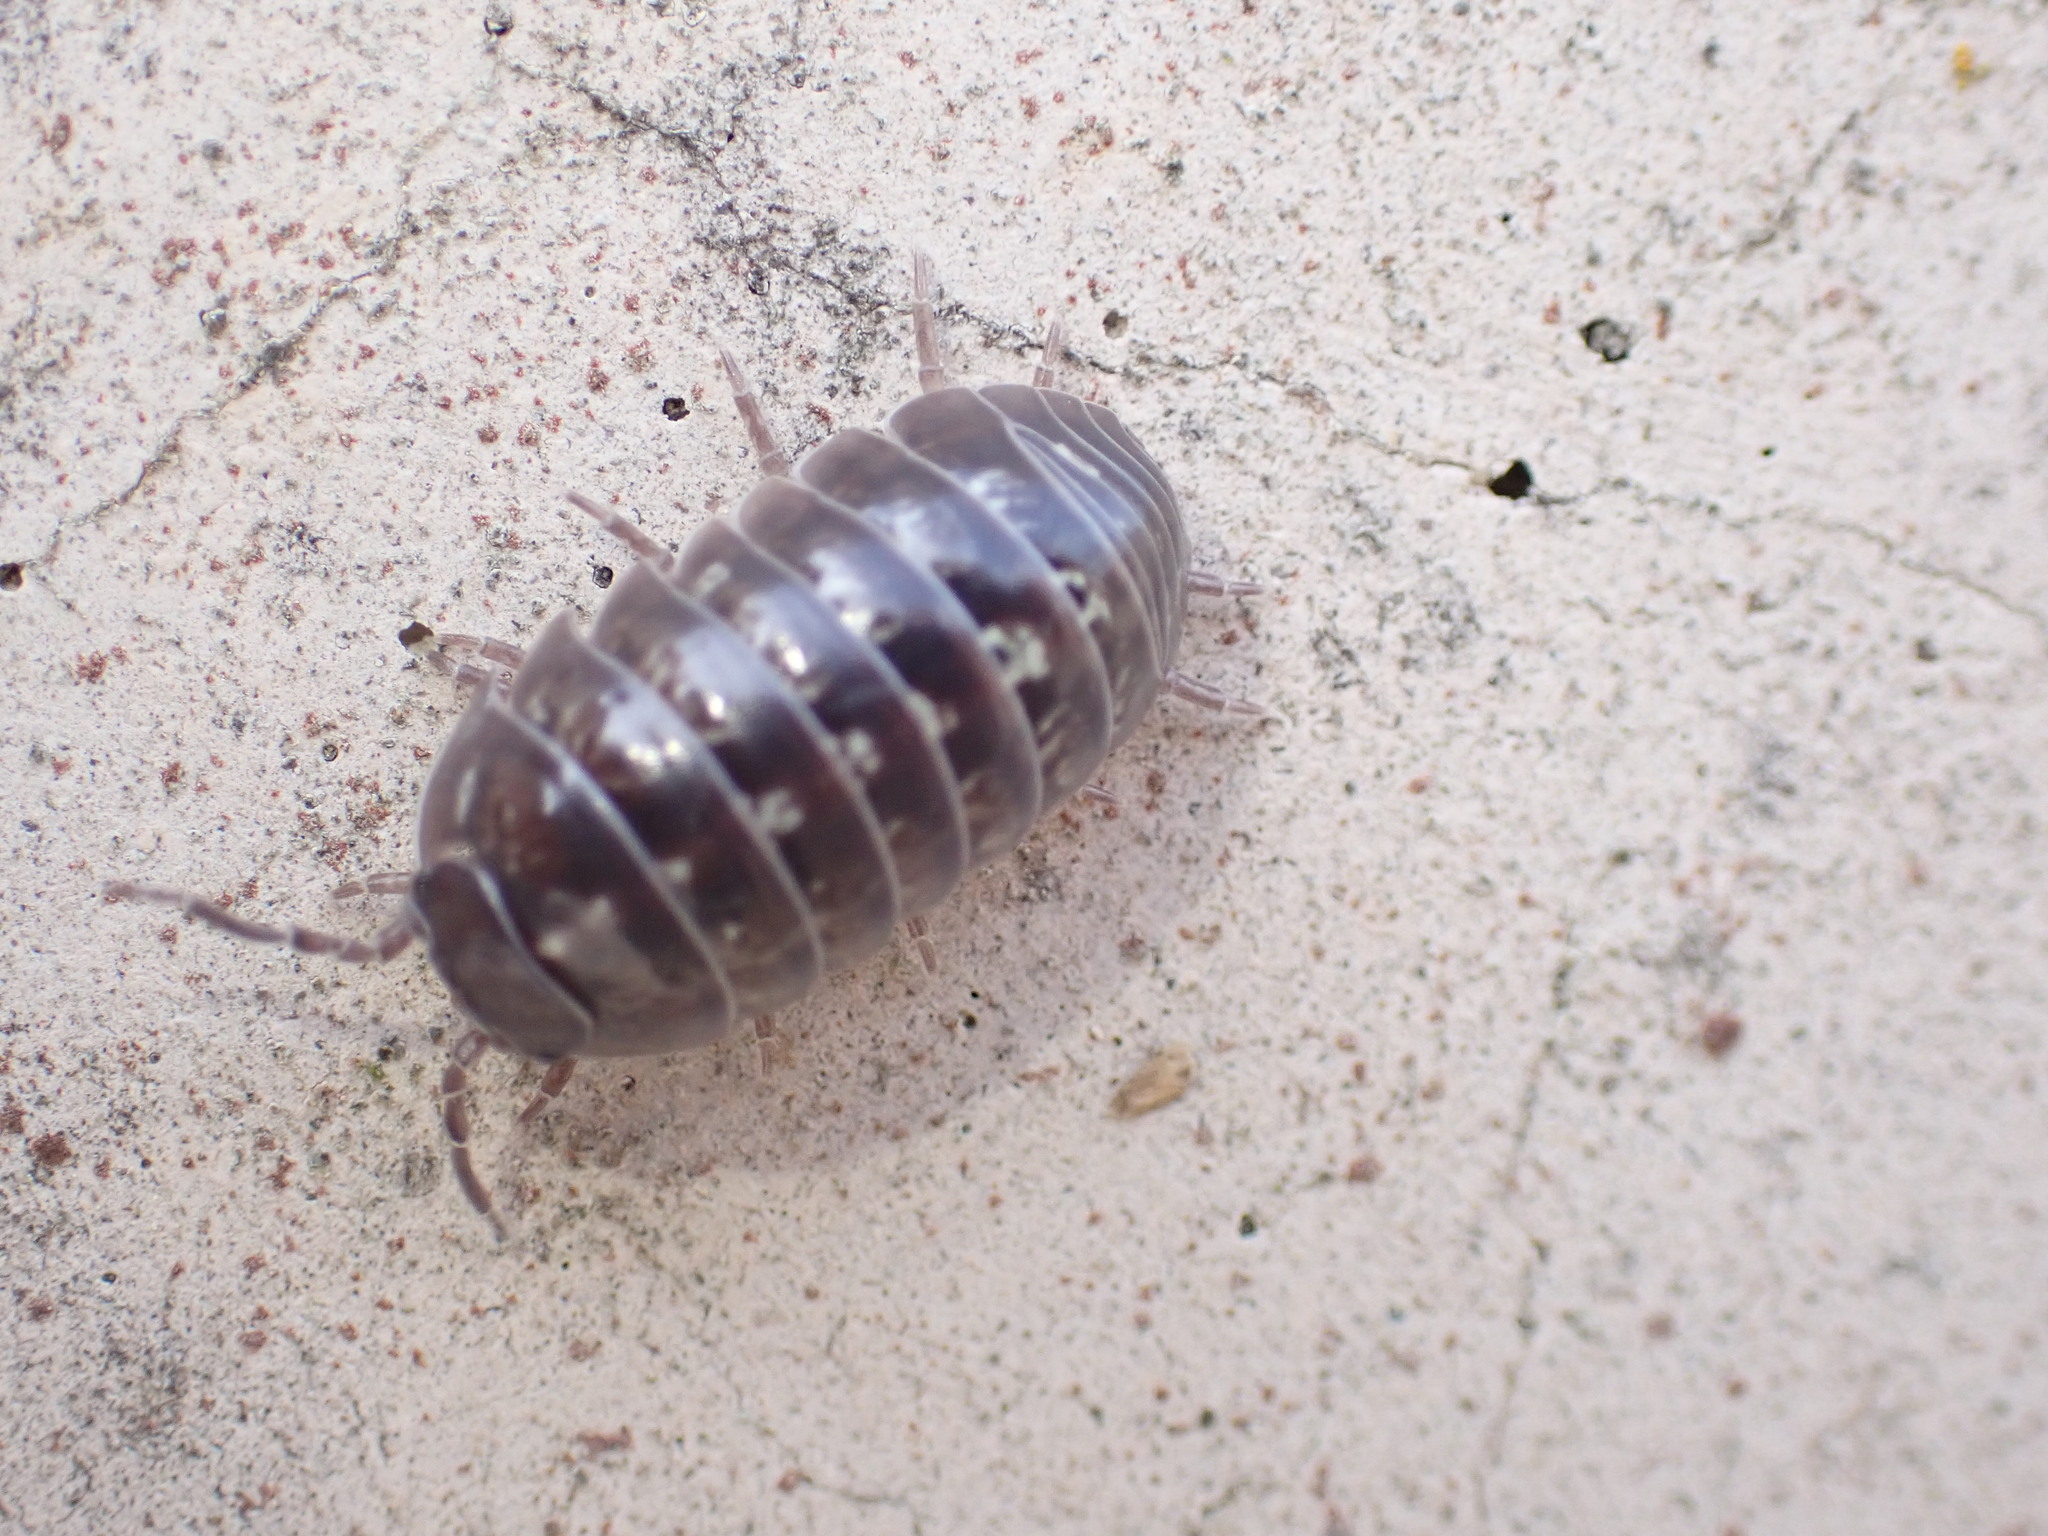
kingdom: Animalia
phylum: Arthropoda
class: Malacostraca
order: Isopoda
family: Armadillidiidae
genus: Armadillidium
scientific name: Armadillidium vulgare
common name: Common pill woodlouse
